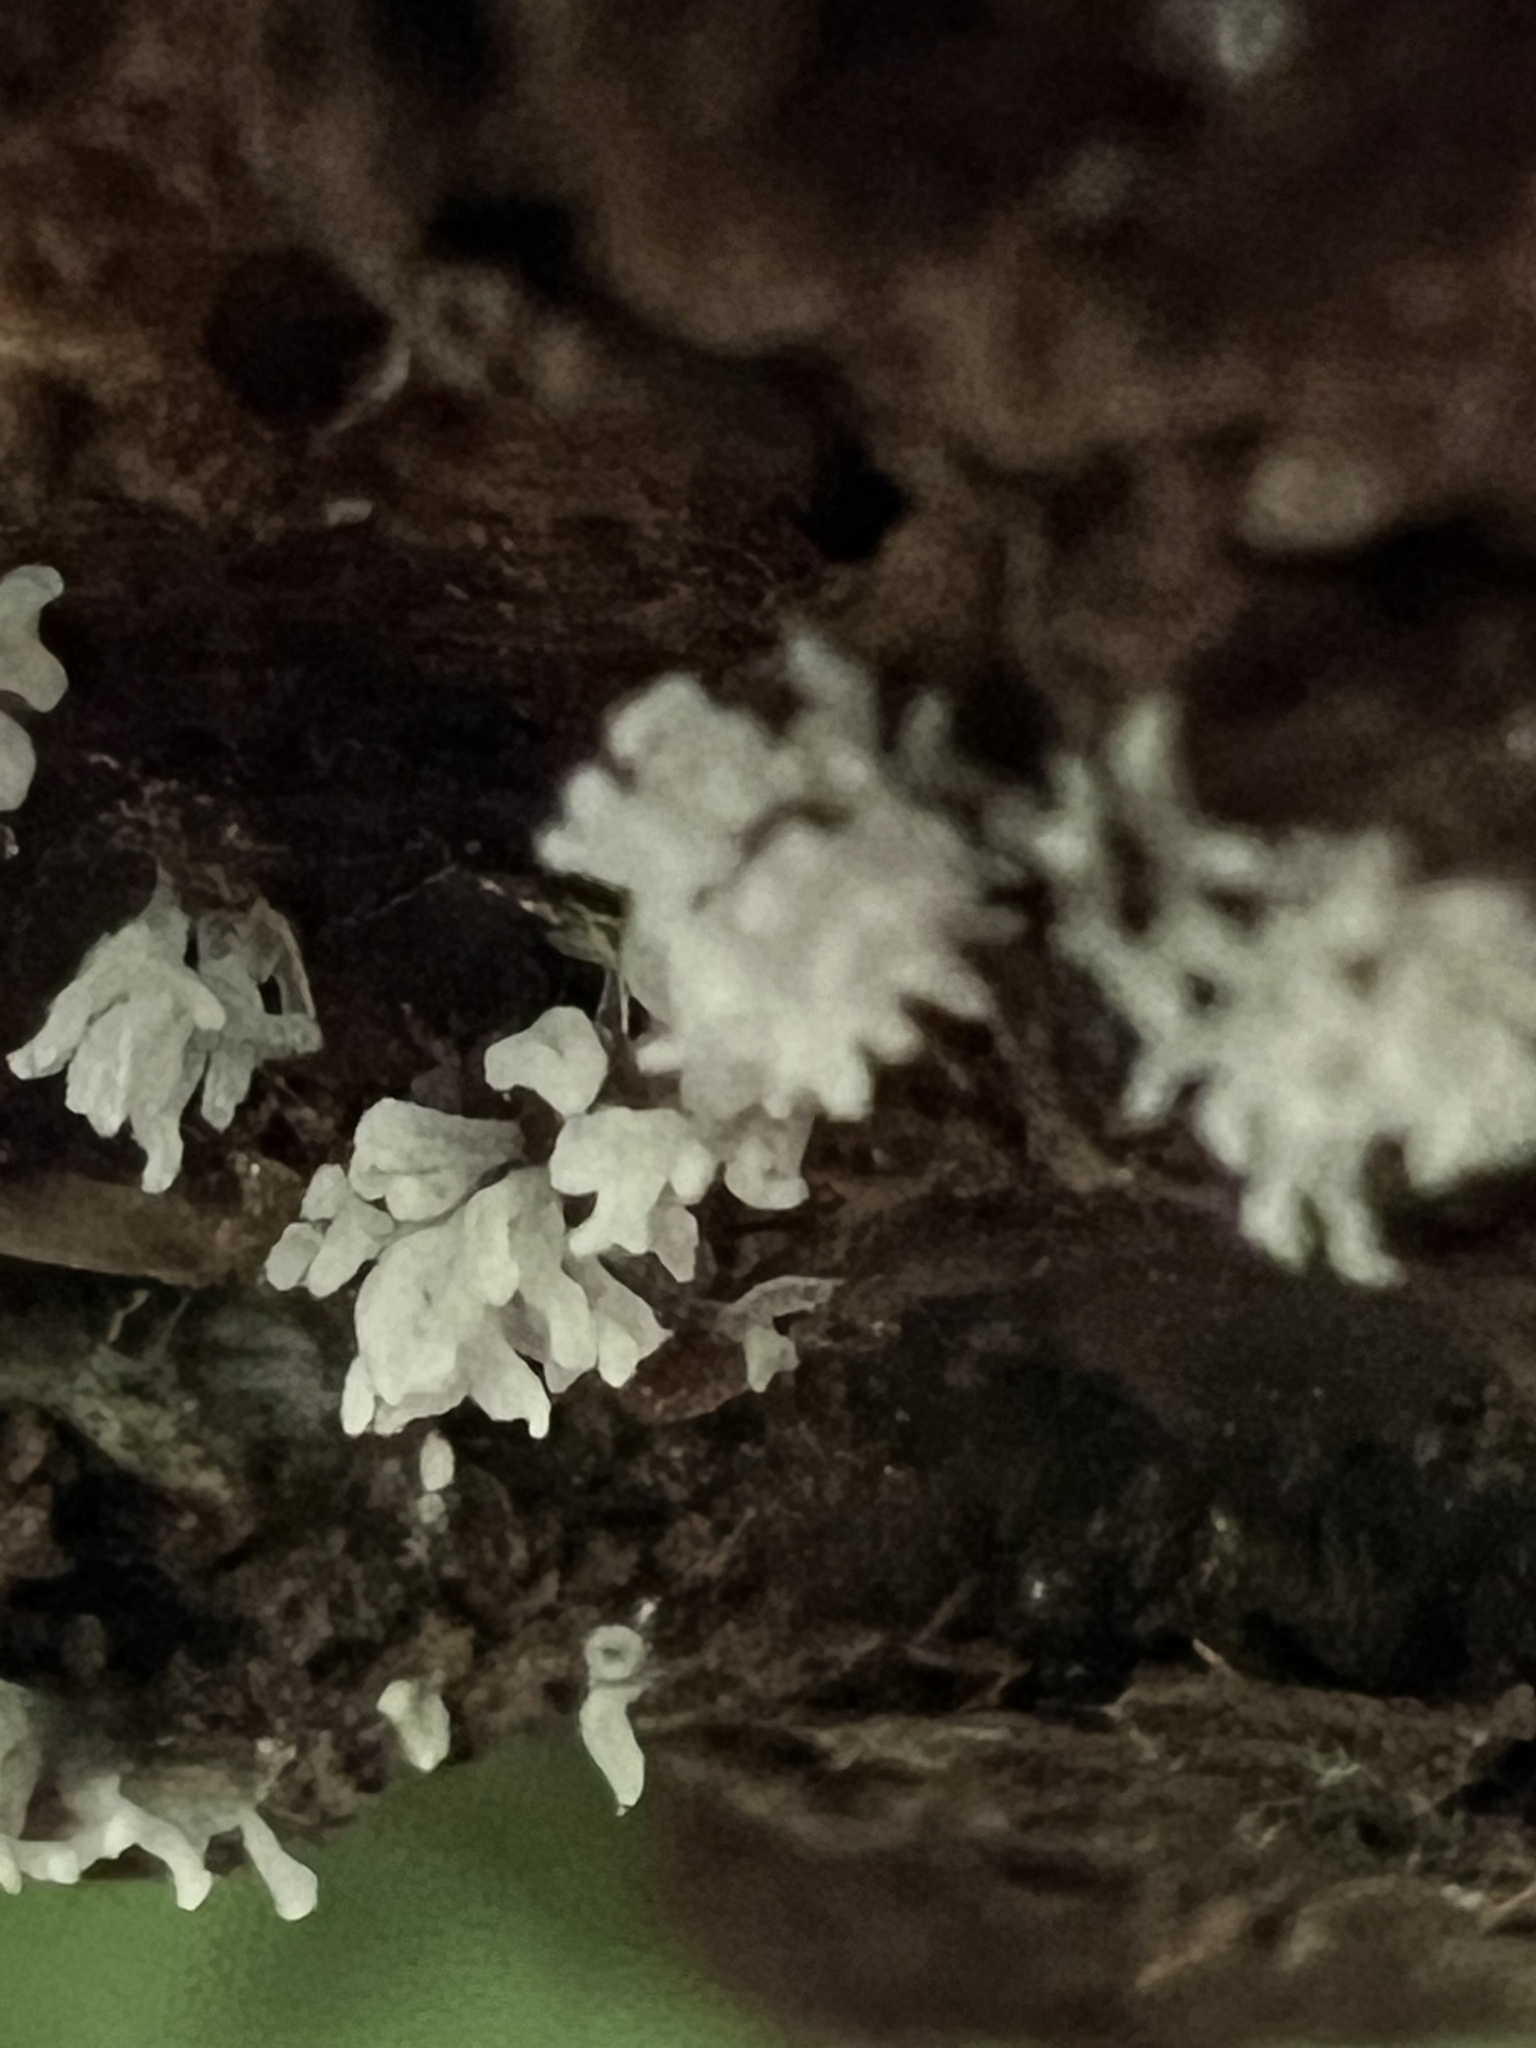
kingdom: Protozoa
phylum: Mycetozoa
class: Protosteliomycetes
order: Ceratiomyxales
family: Ceratiomyxaceae
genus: Ceratiomyxa
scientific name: Ceratiomyxa fruticulosa
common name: Honeycomb coral slime mold
